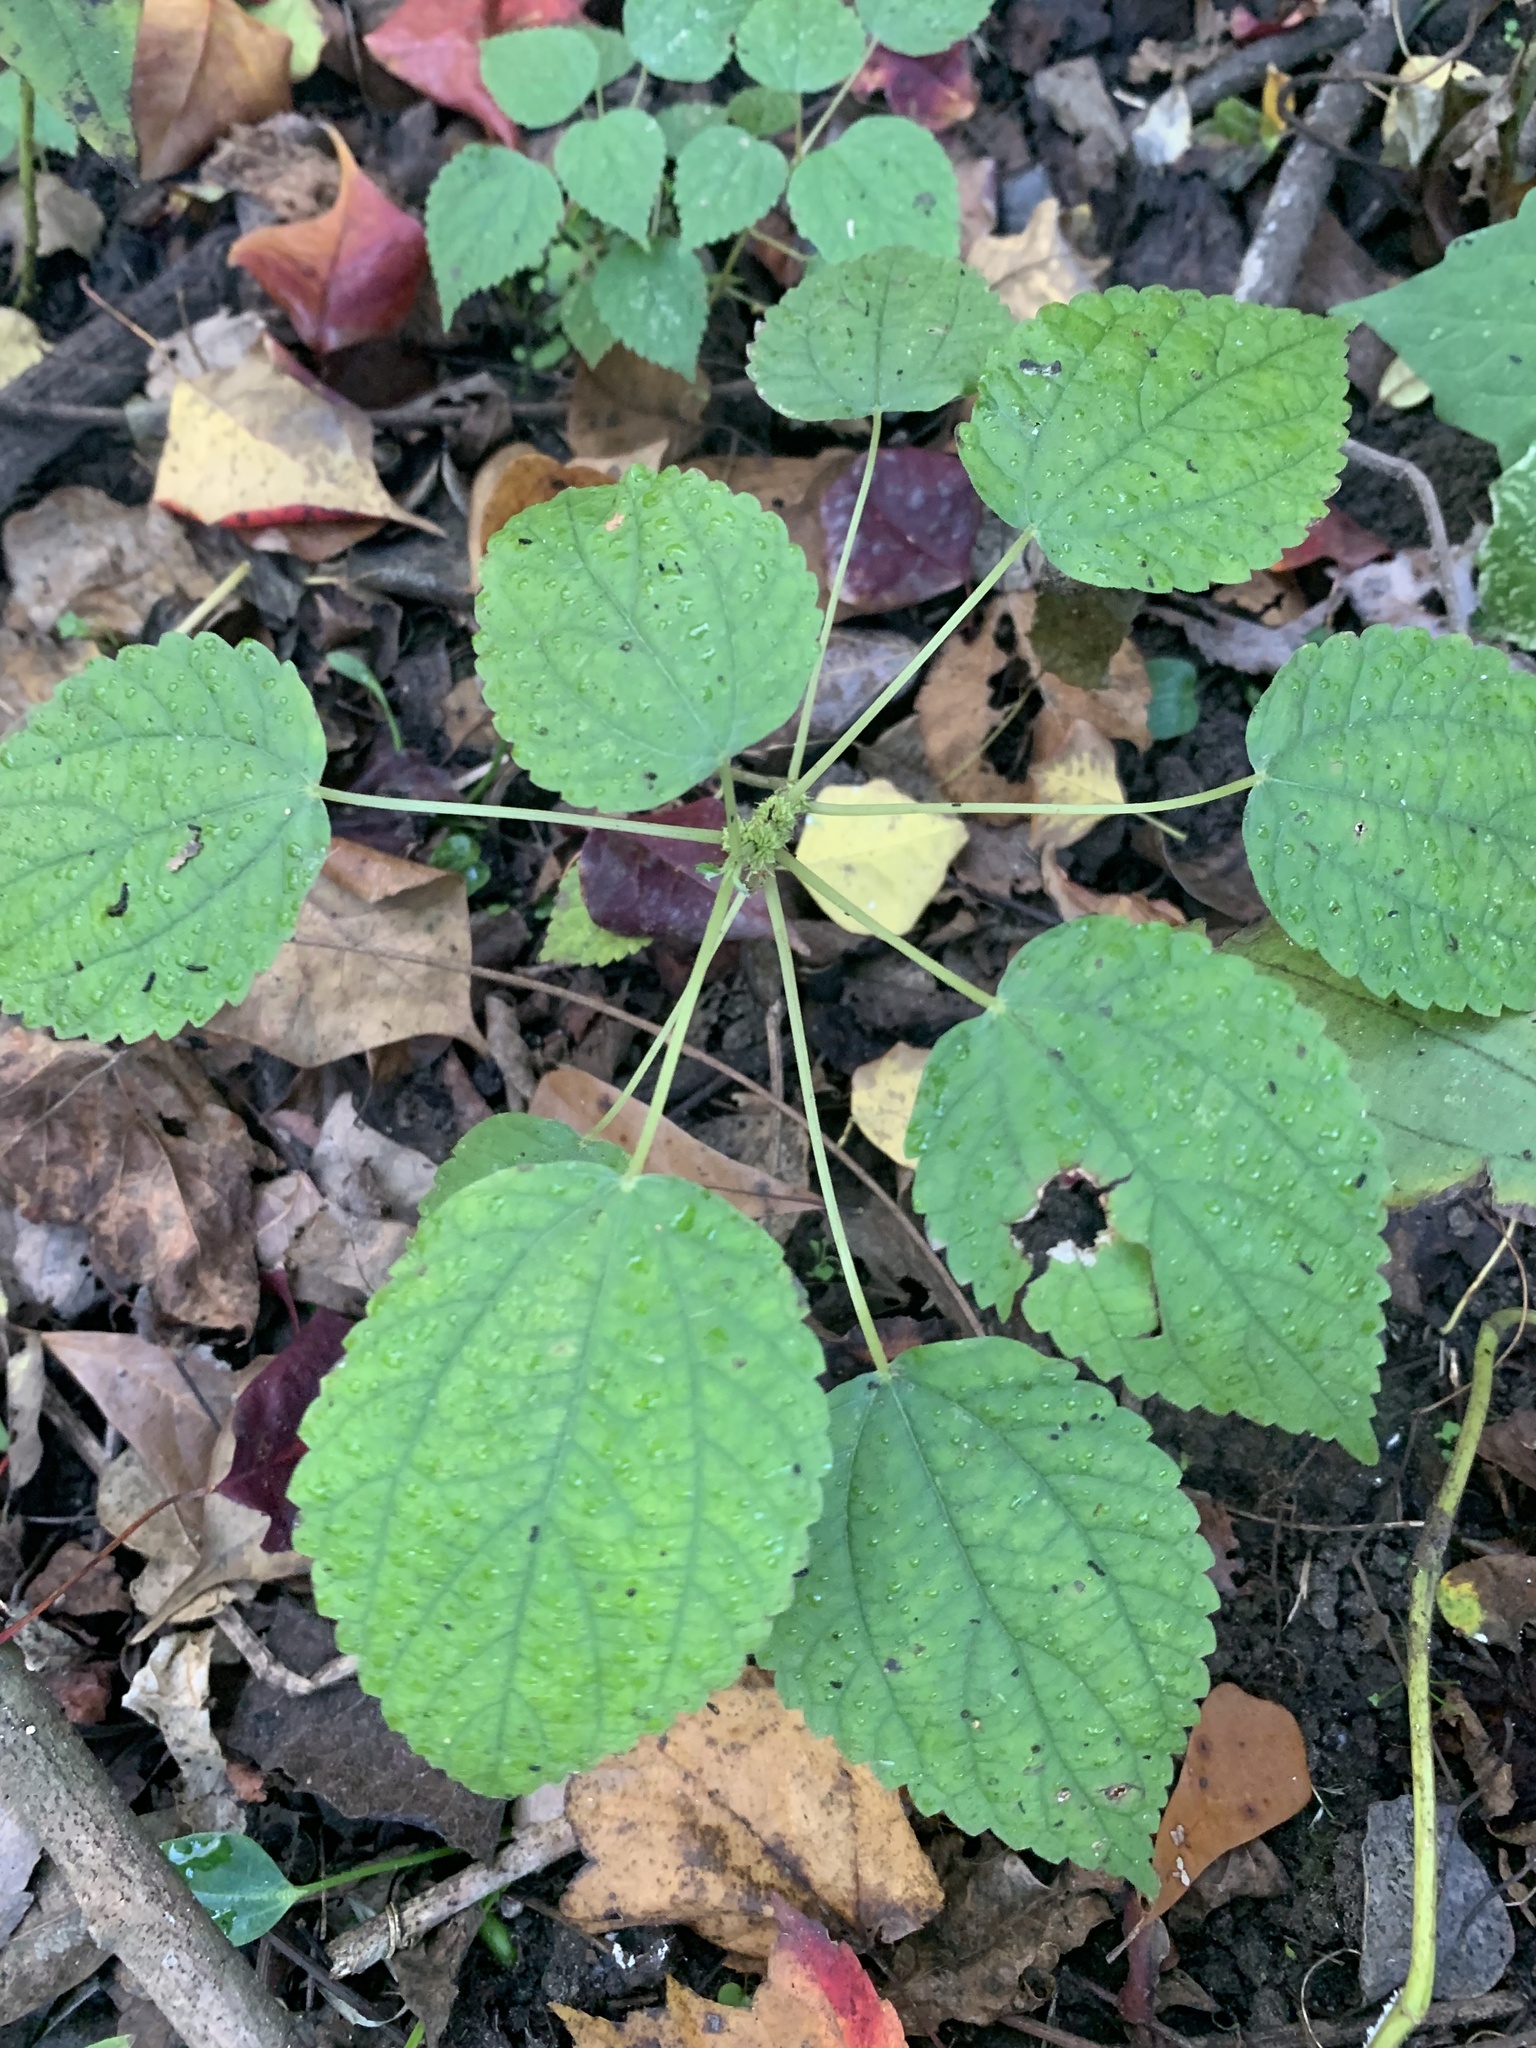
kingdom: Plantae
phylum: Tracheophyta
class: Magnoliopsida
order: Rosales
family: Urticaceae
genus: Boehmeria
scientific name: Boehmeria cylindrica
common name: Bog-hemp
